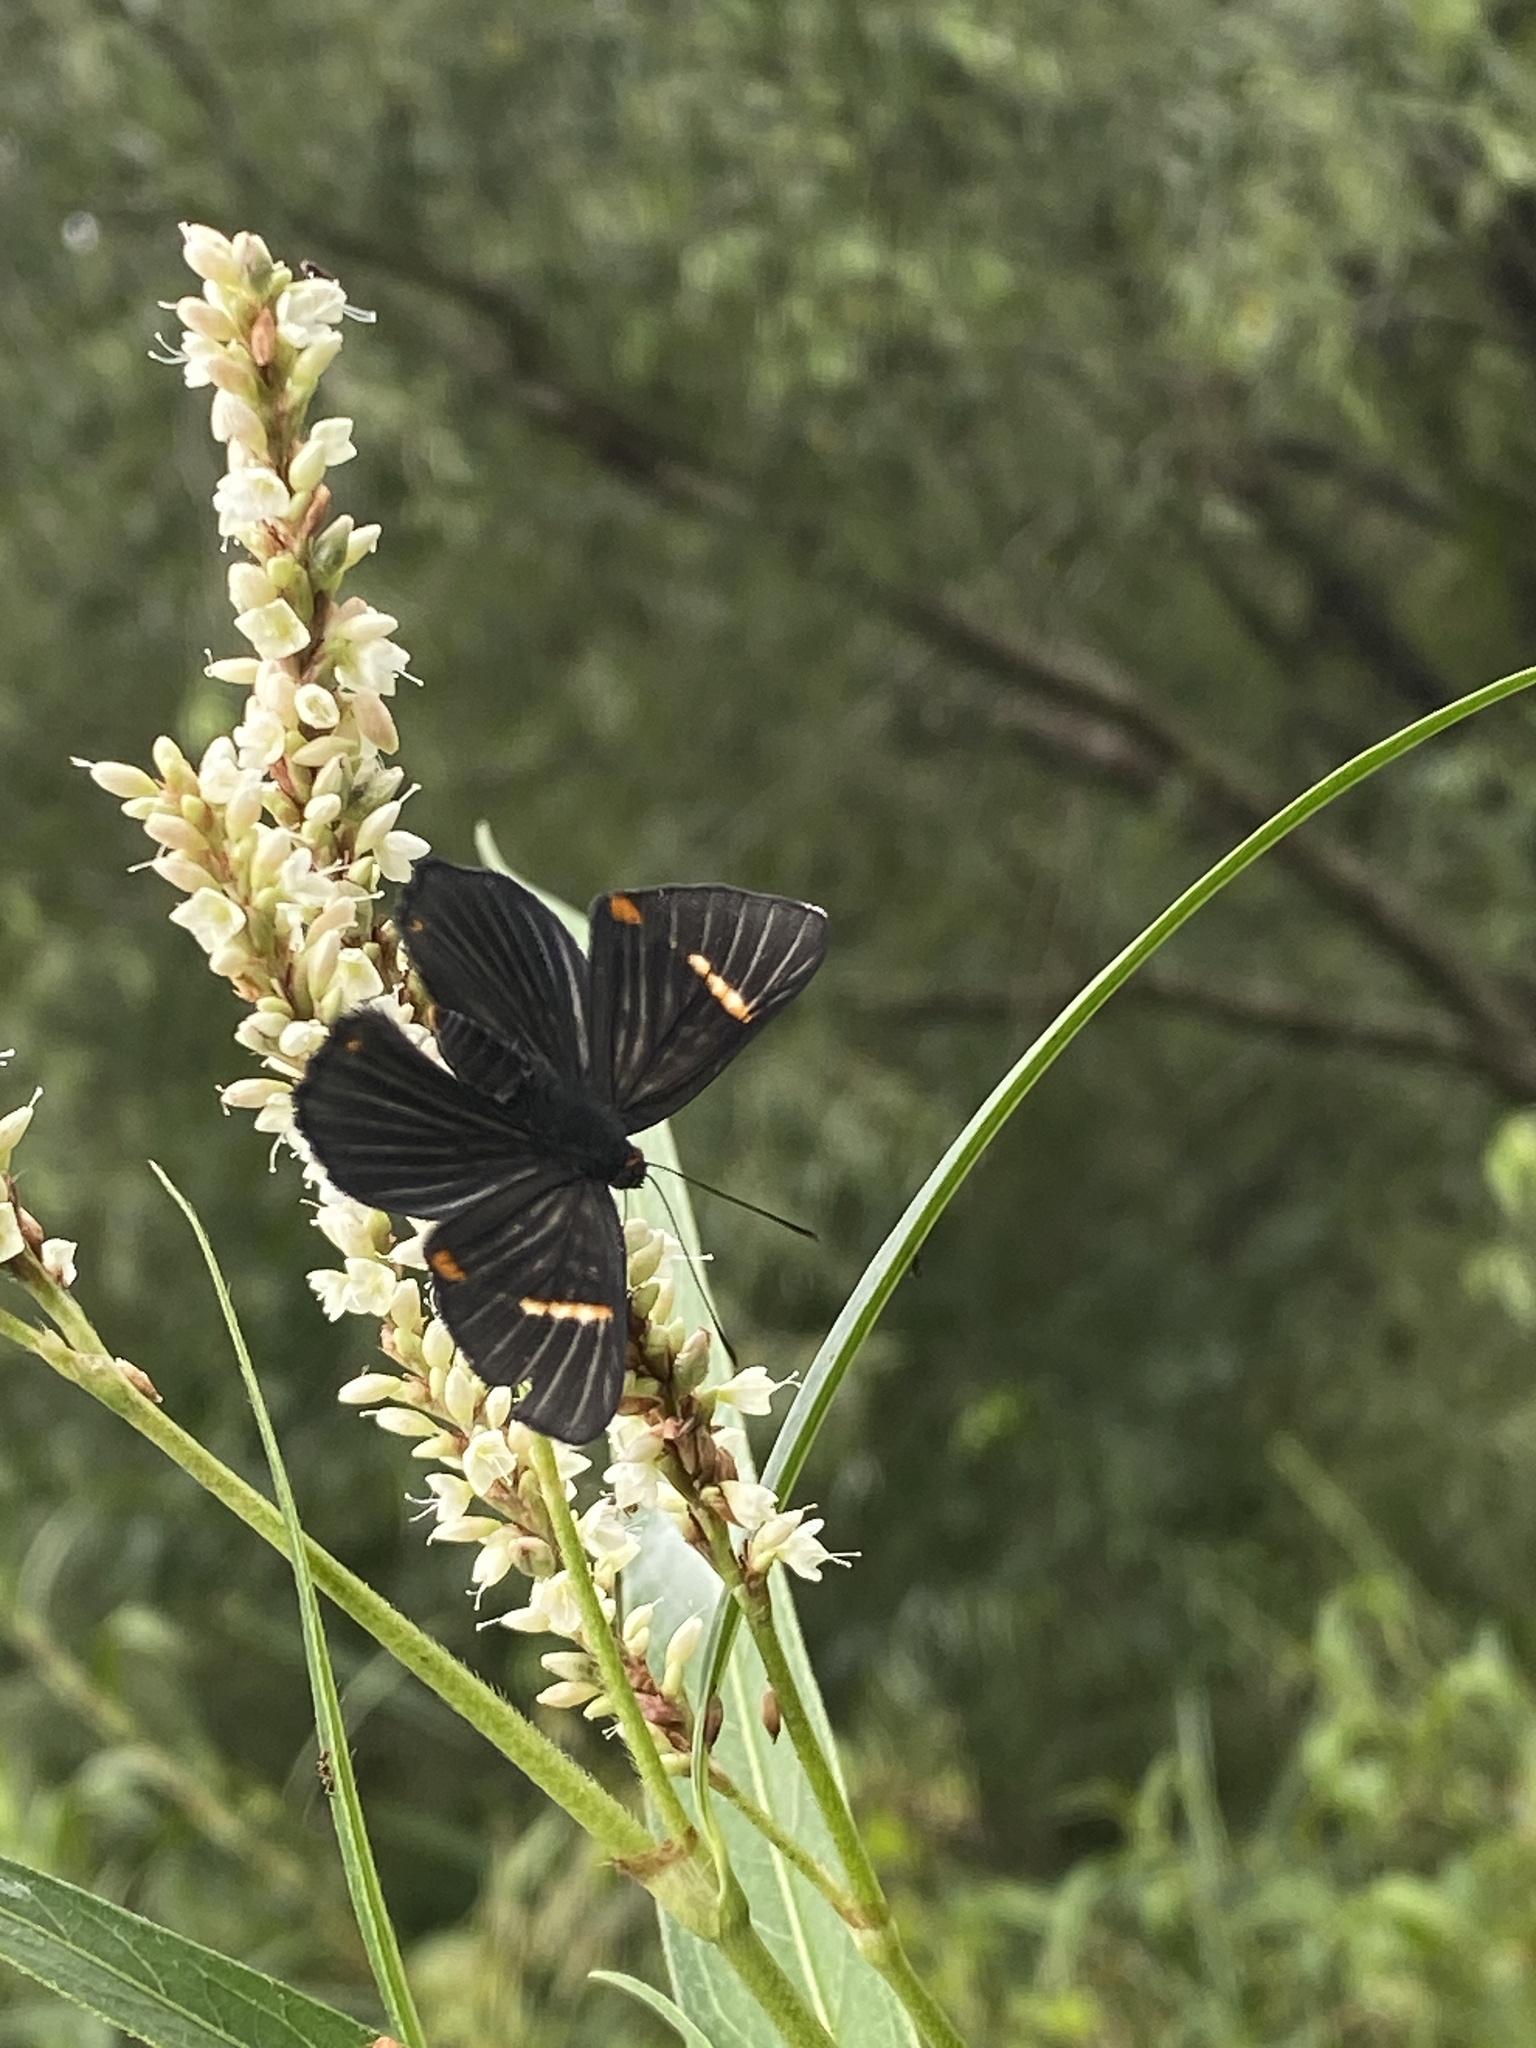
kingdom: Animalia
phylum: Arthropoda
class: Insecta
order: Lepidoptera
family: Riodinidae
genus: Riodina
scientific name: Riodina lycisca
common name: Lycisca metalmark
